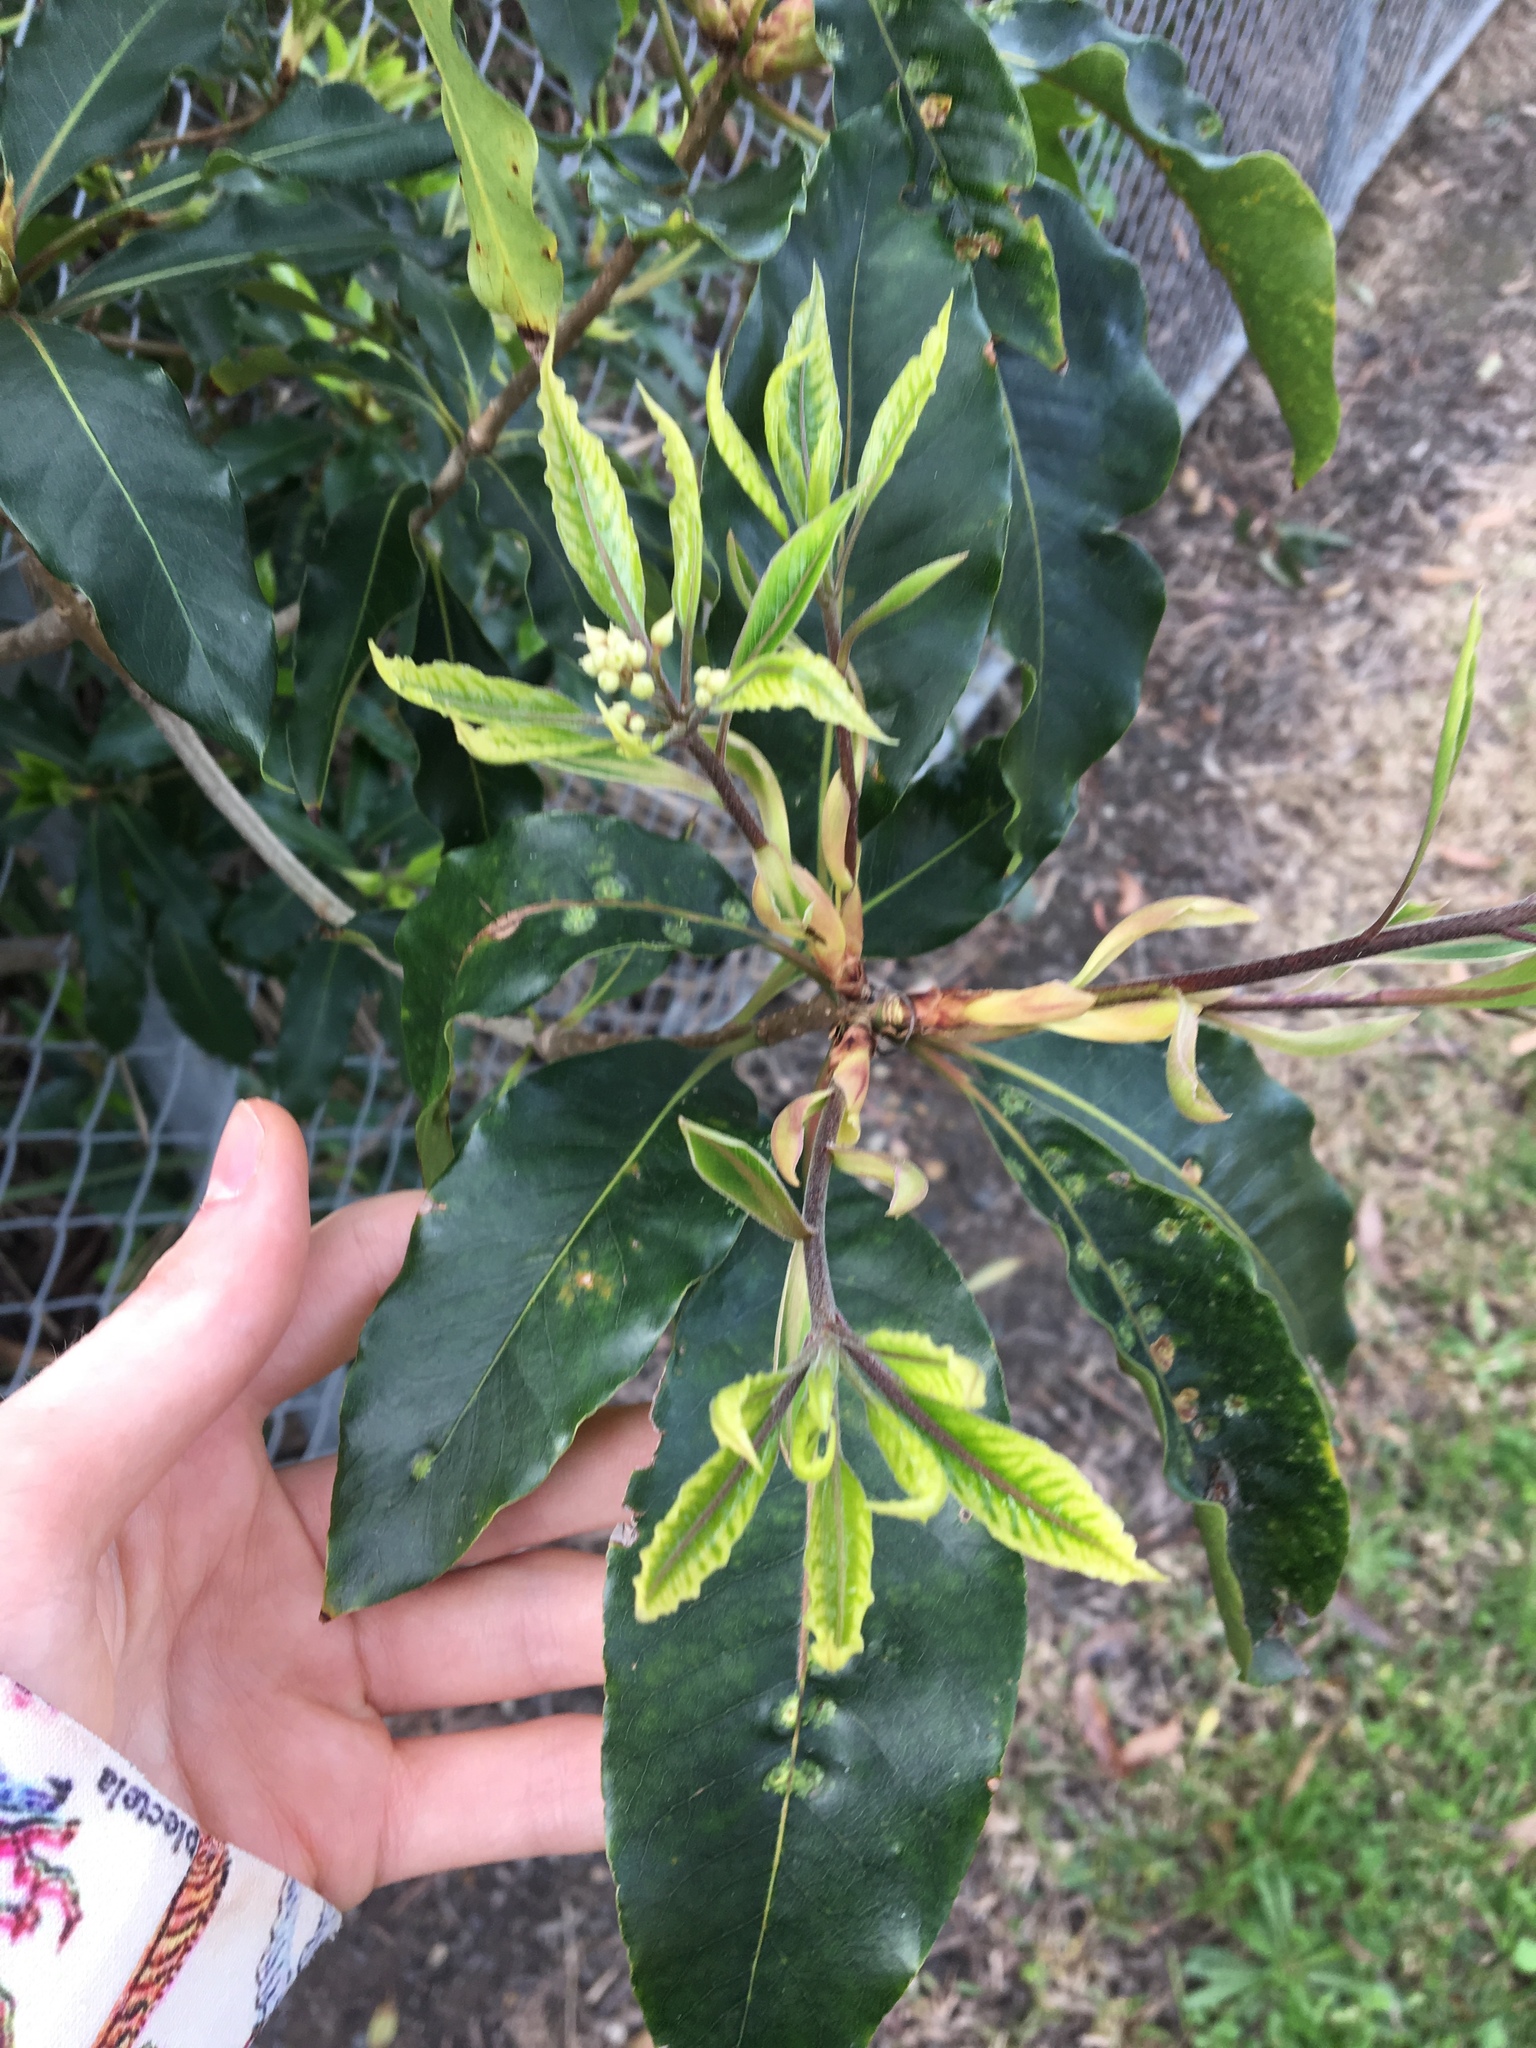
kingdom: Plantae
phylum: Tracheophyta
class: Magnoliopsida
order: Apiales
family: Pittosporaceae
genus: Pittosporum
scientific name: Pittosporum undulatum
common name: Australian cheesewood
